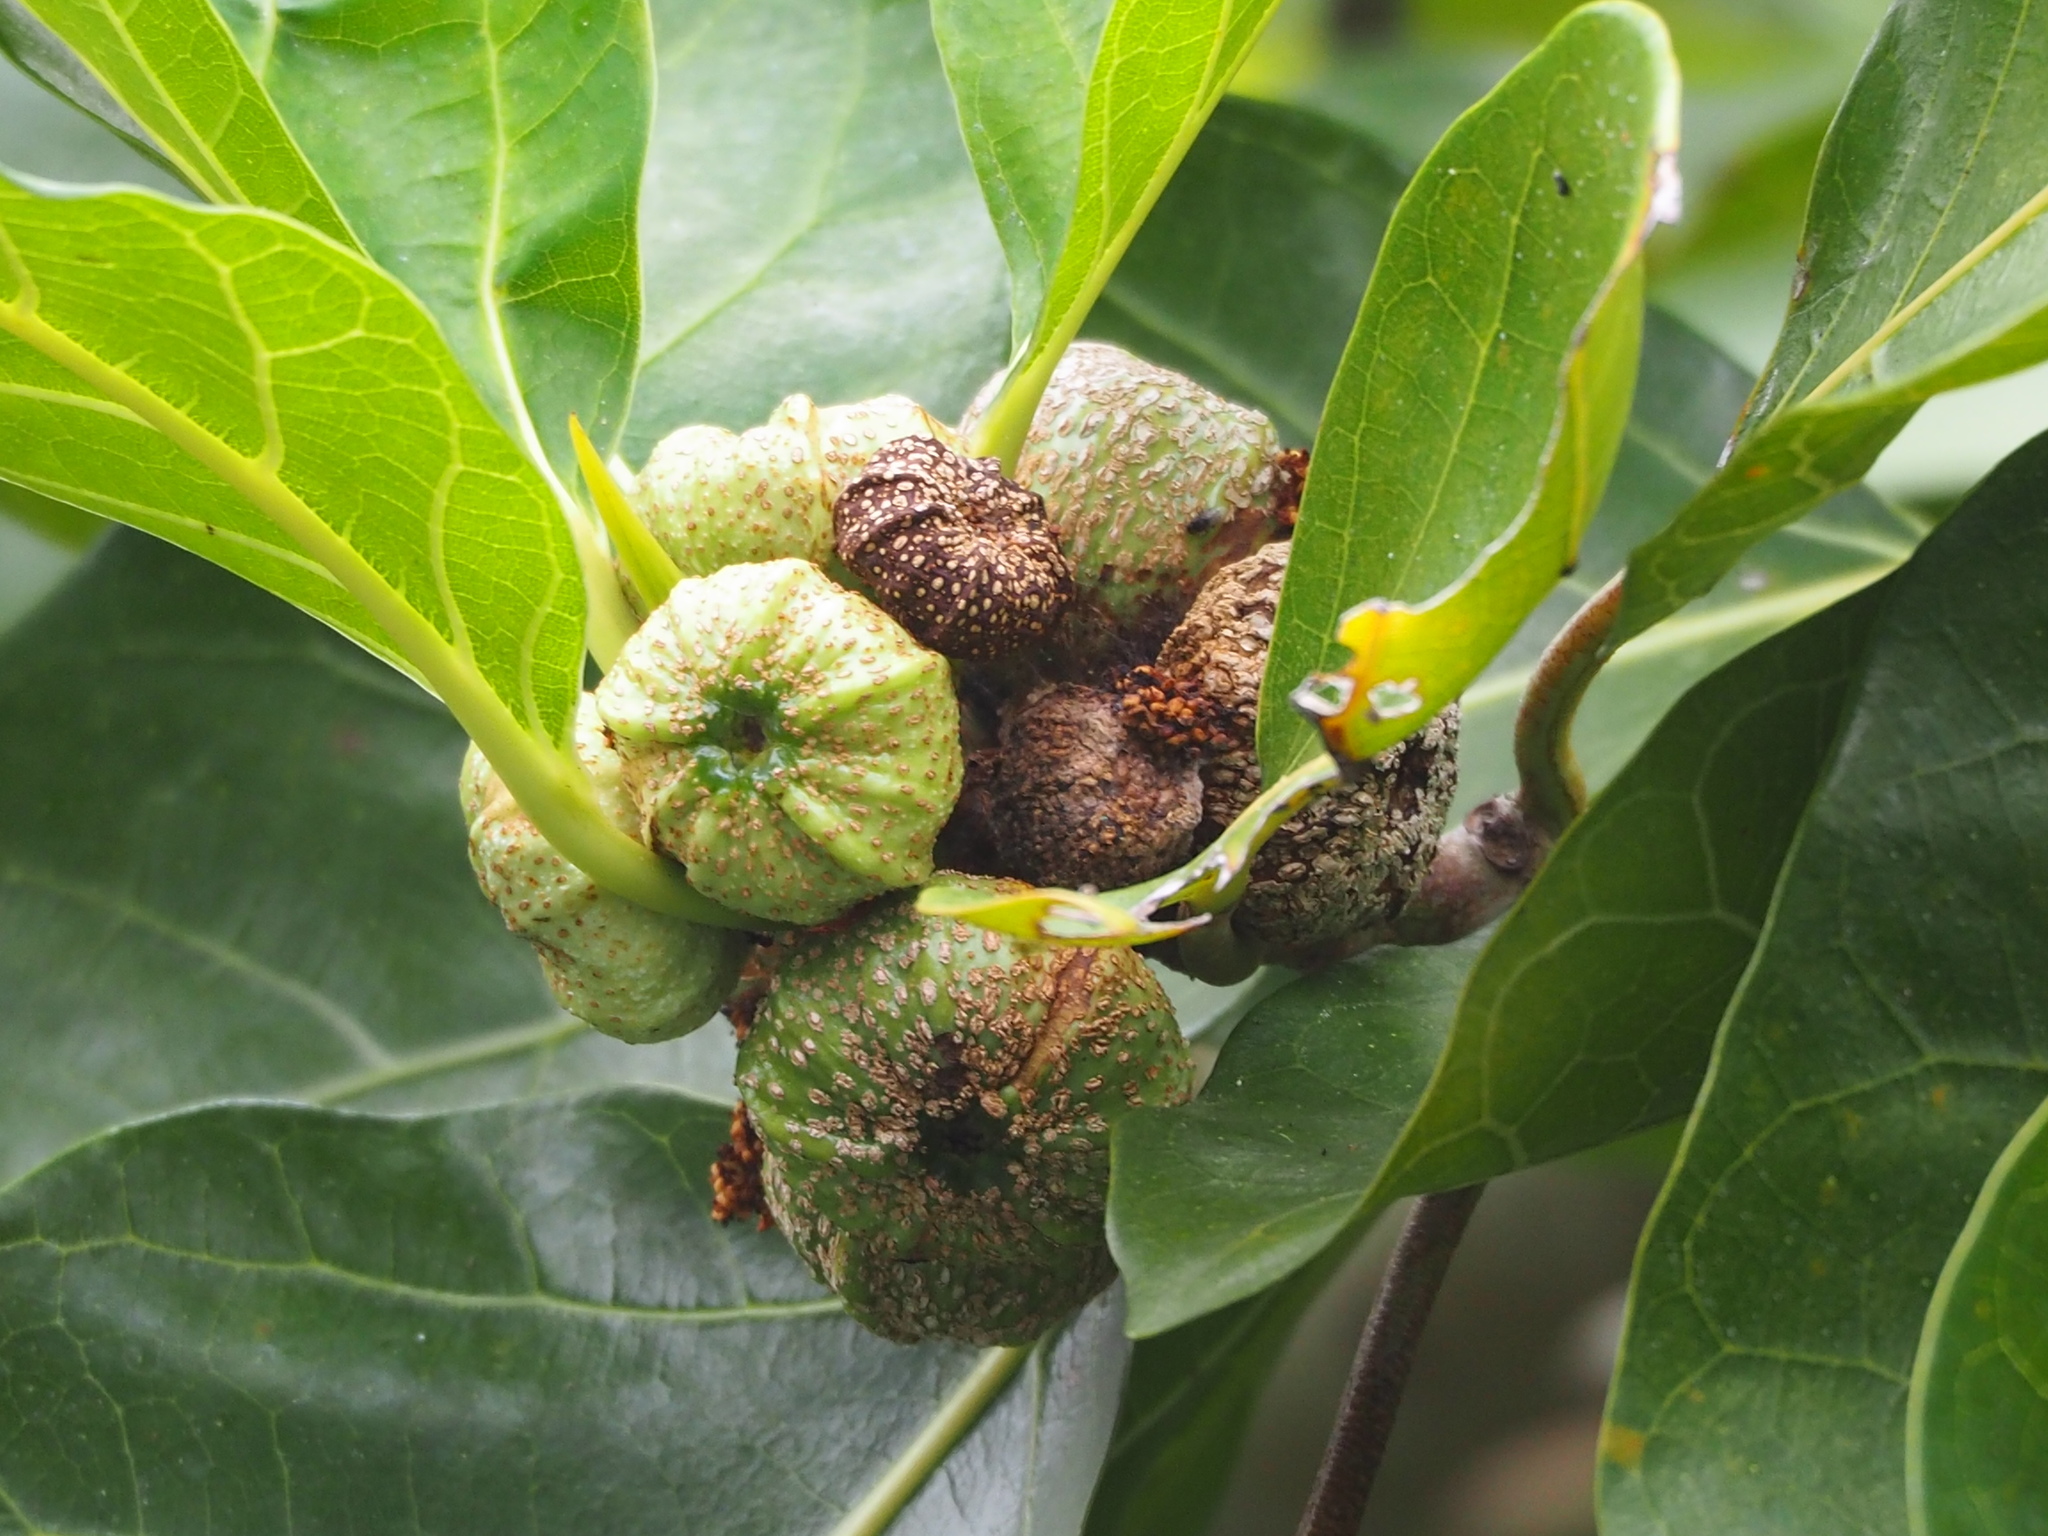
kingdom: Plantae
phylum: Tracheophyta
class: Magnoliopsida
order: Rosales
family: Moraceae
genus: Ficus
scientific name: Ficus septica
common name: Septic fig
